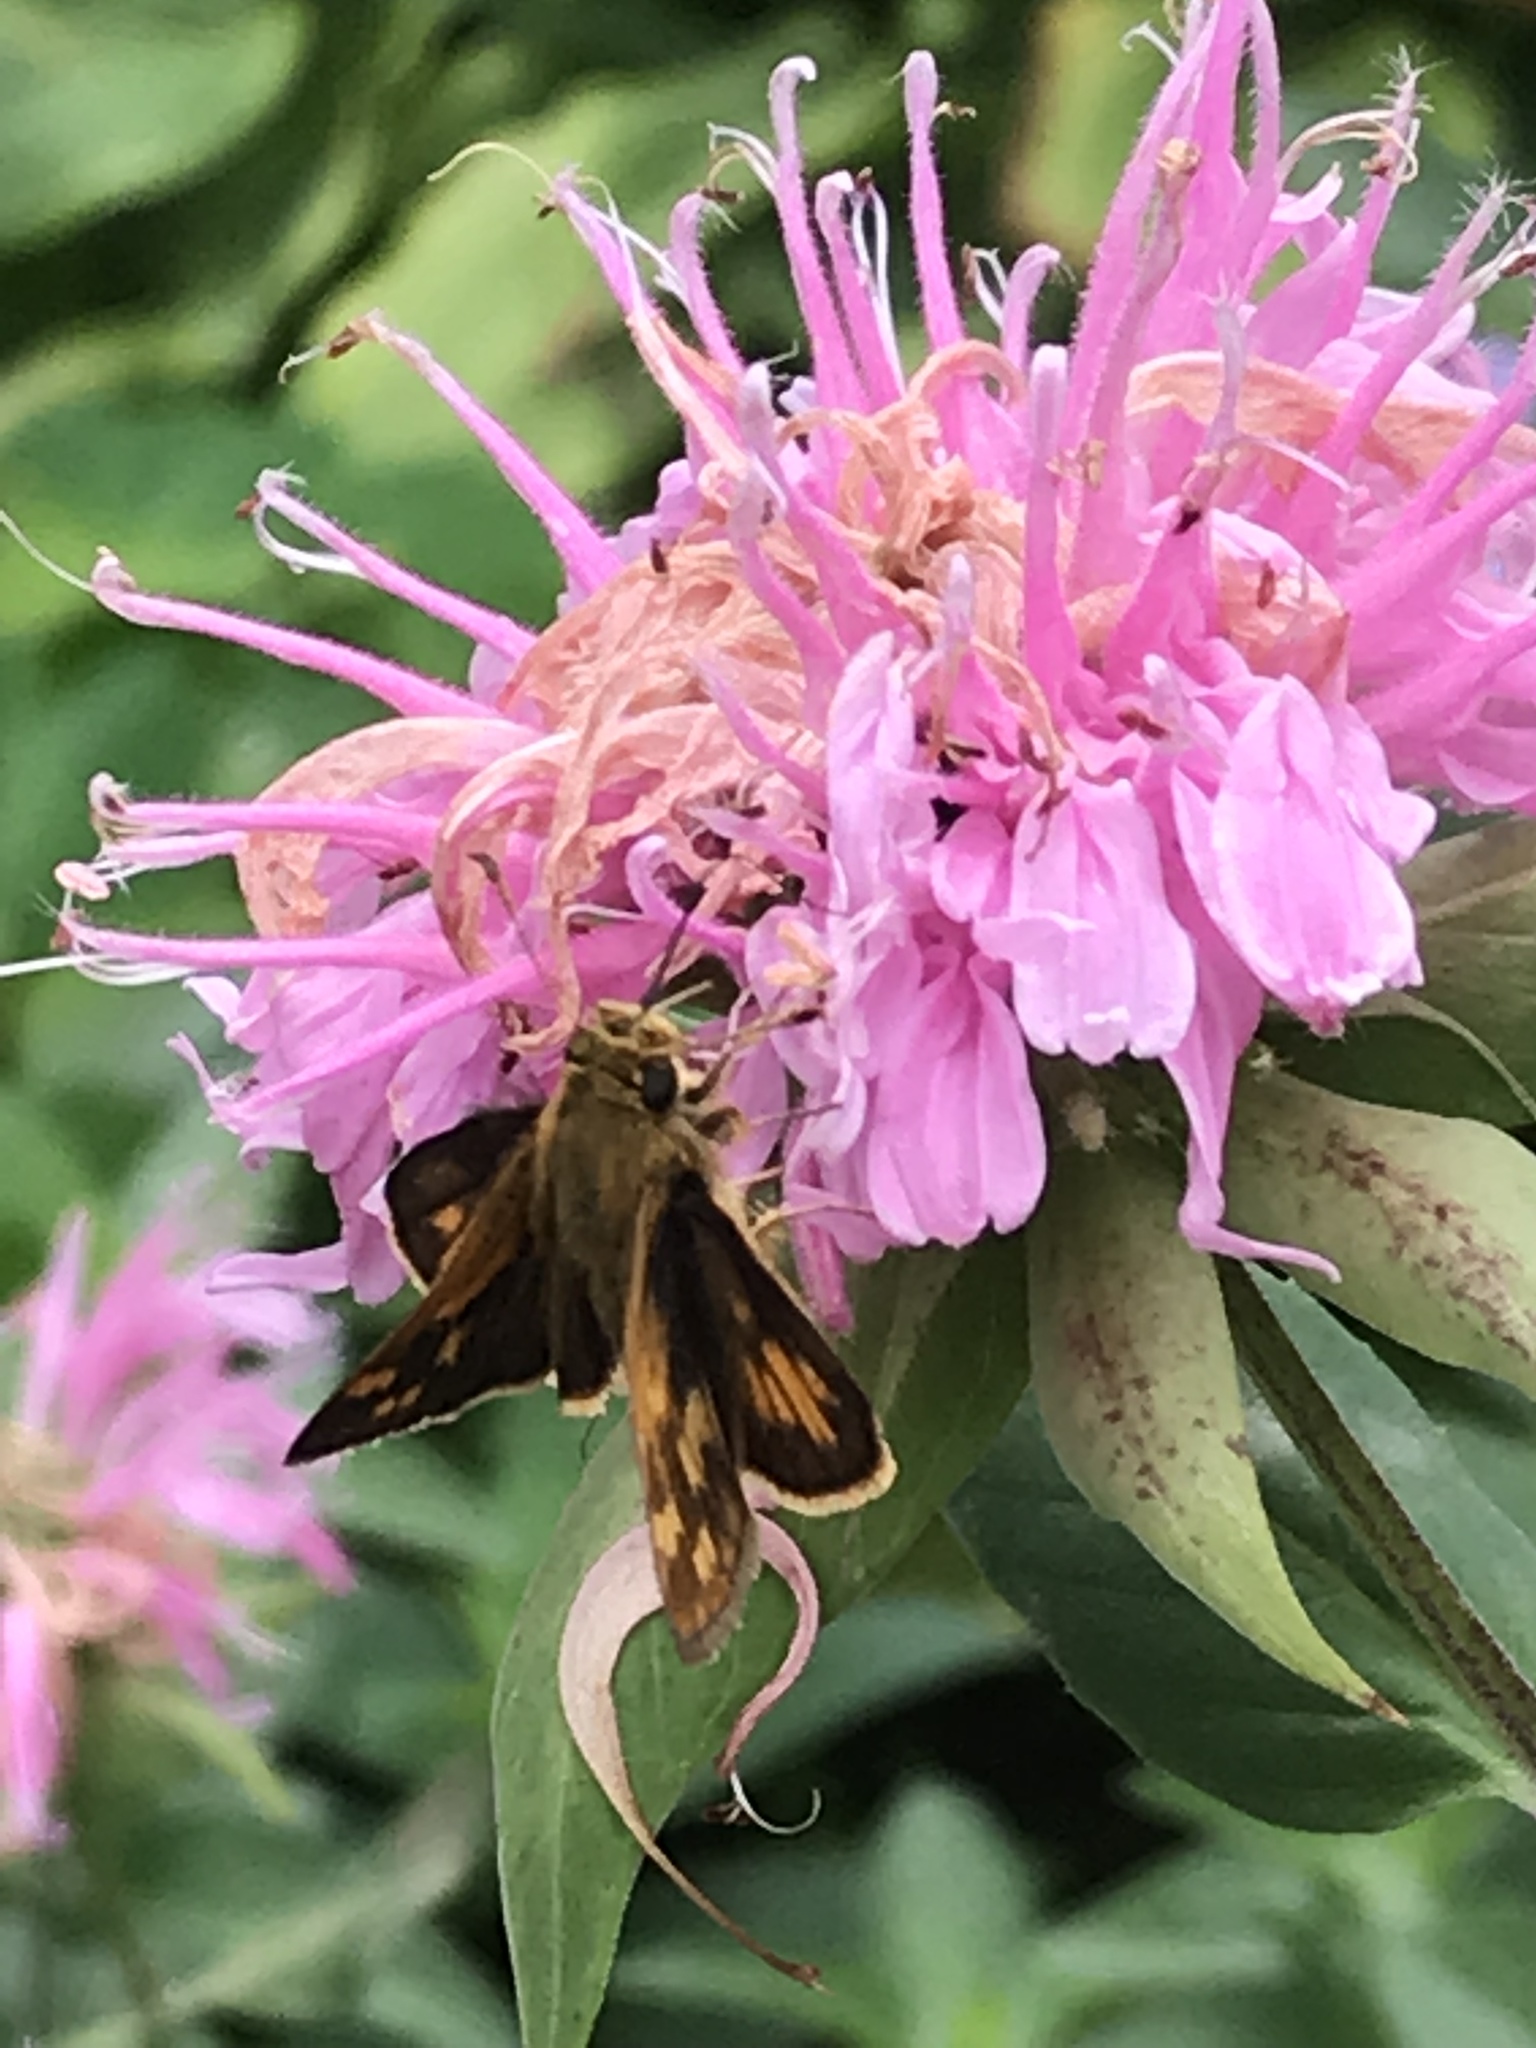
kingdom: Animalia
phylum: Arthropoda
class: Insecta
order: Lepidoptera
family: Hesperiidae
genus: Polites
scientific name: Polites coras
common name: Peck's skipper
